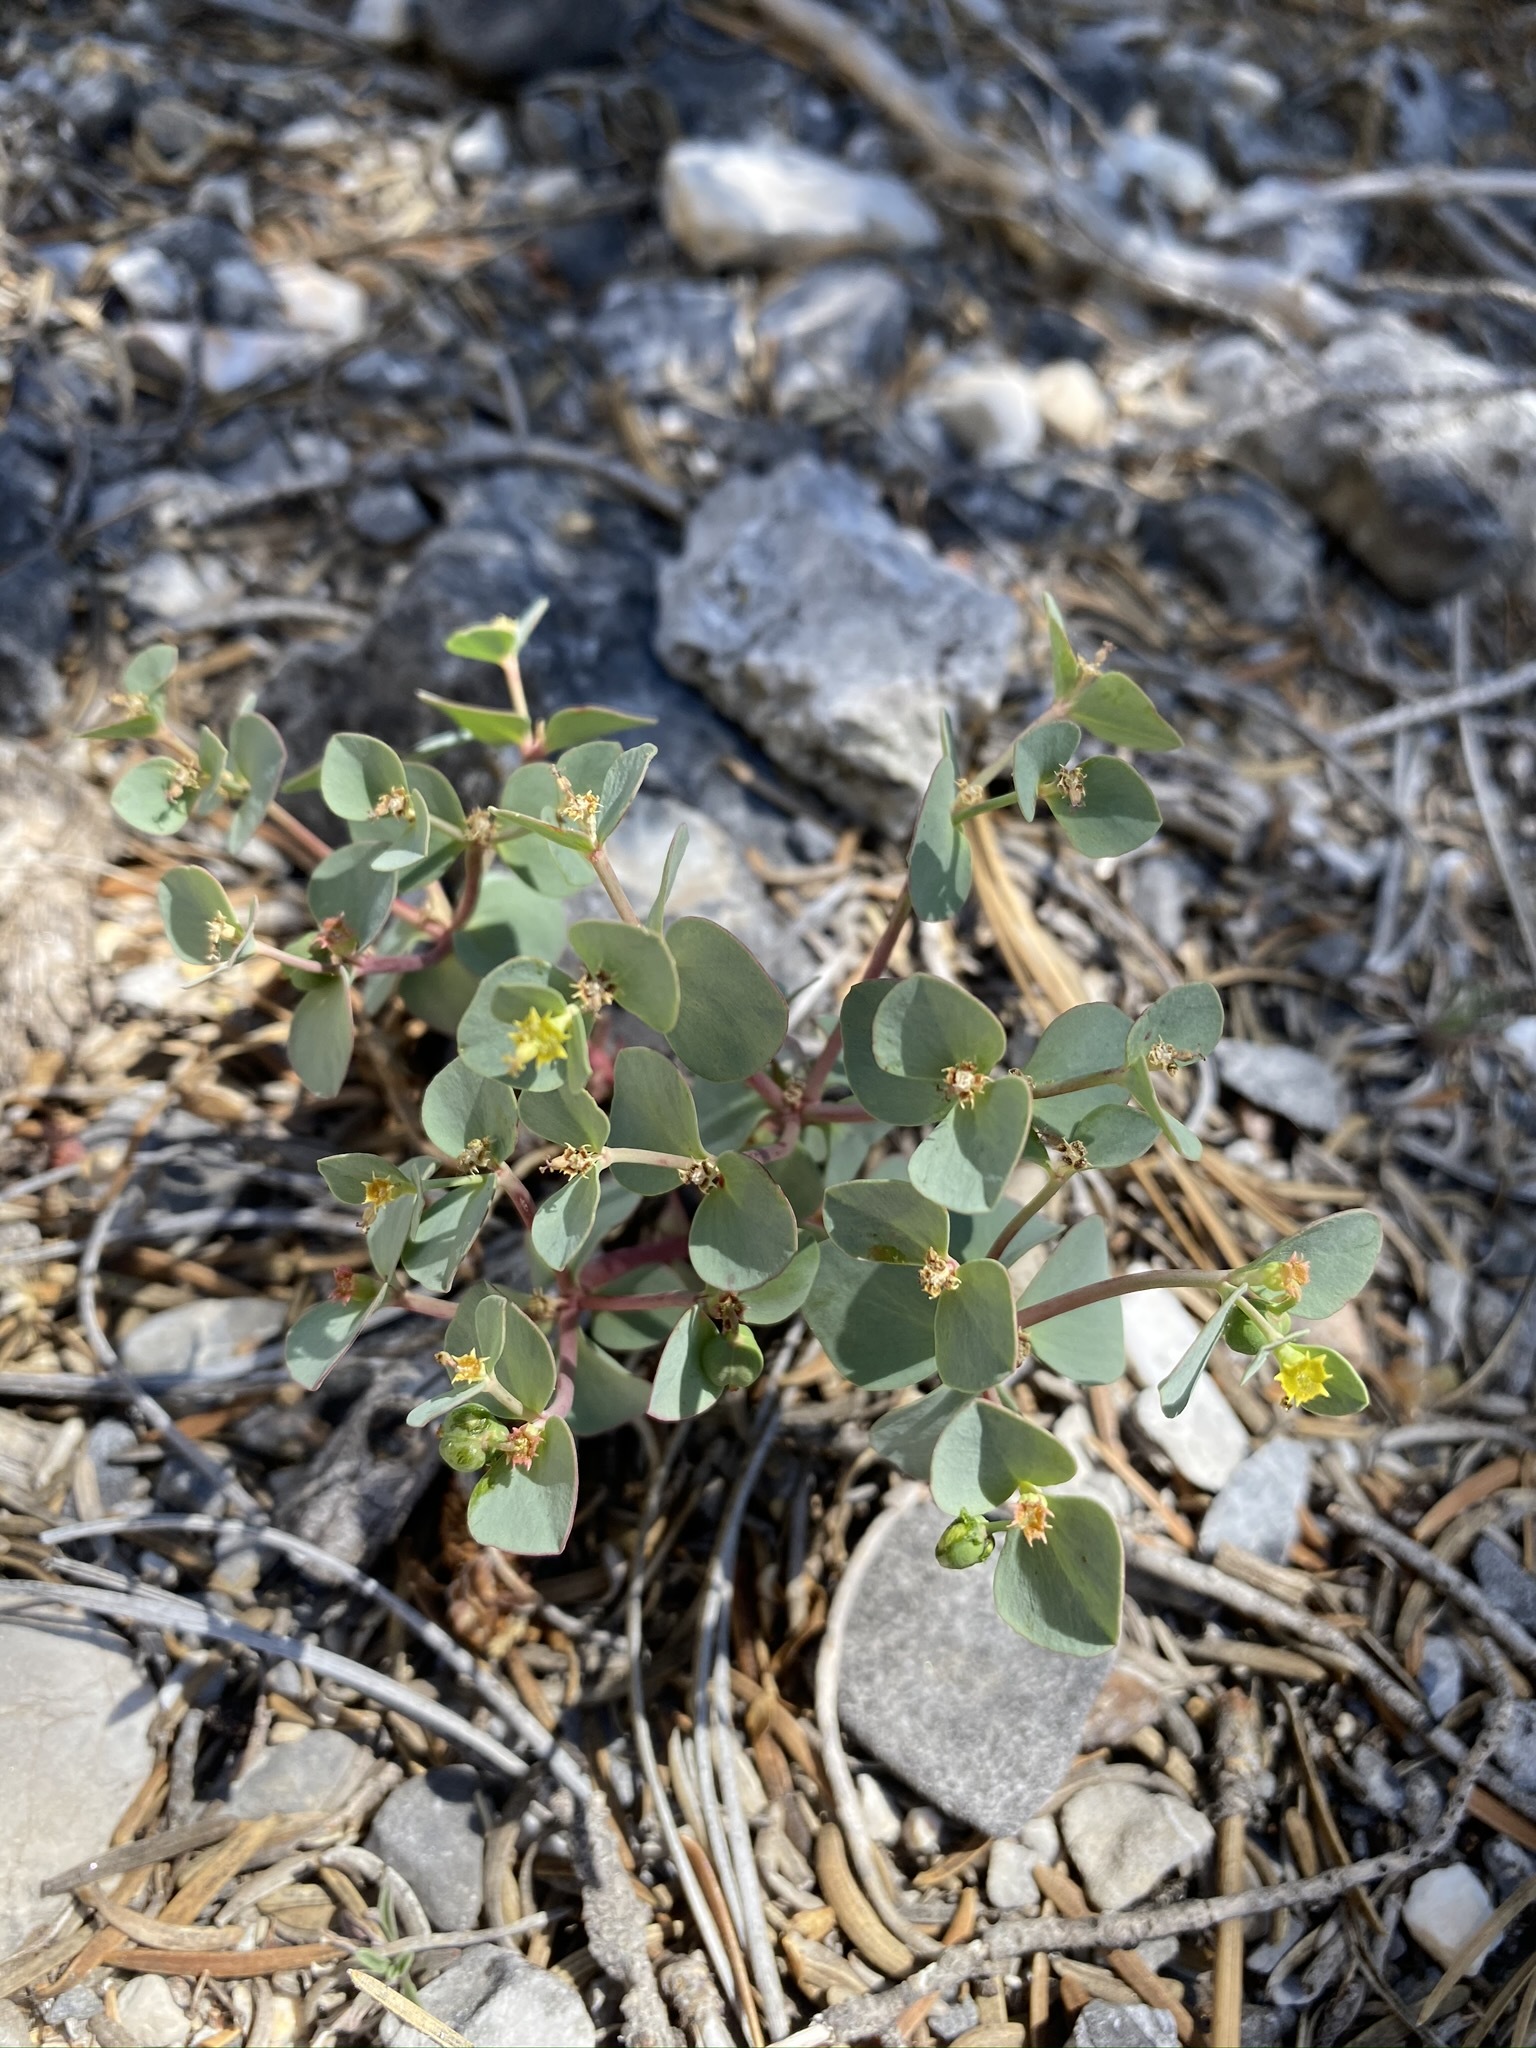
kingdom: Plantae
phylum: Tracheophyta
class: Magnoliopsida
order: Malpighiales
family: Euphorbiaceae
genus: Euphorbia
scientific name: Euphorbia brachycera
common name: Shorthorn spurge
